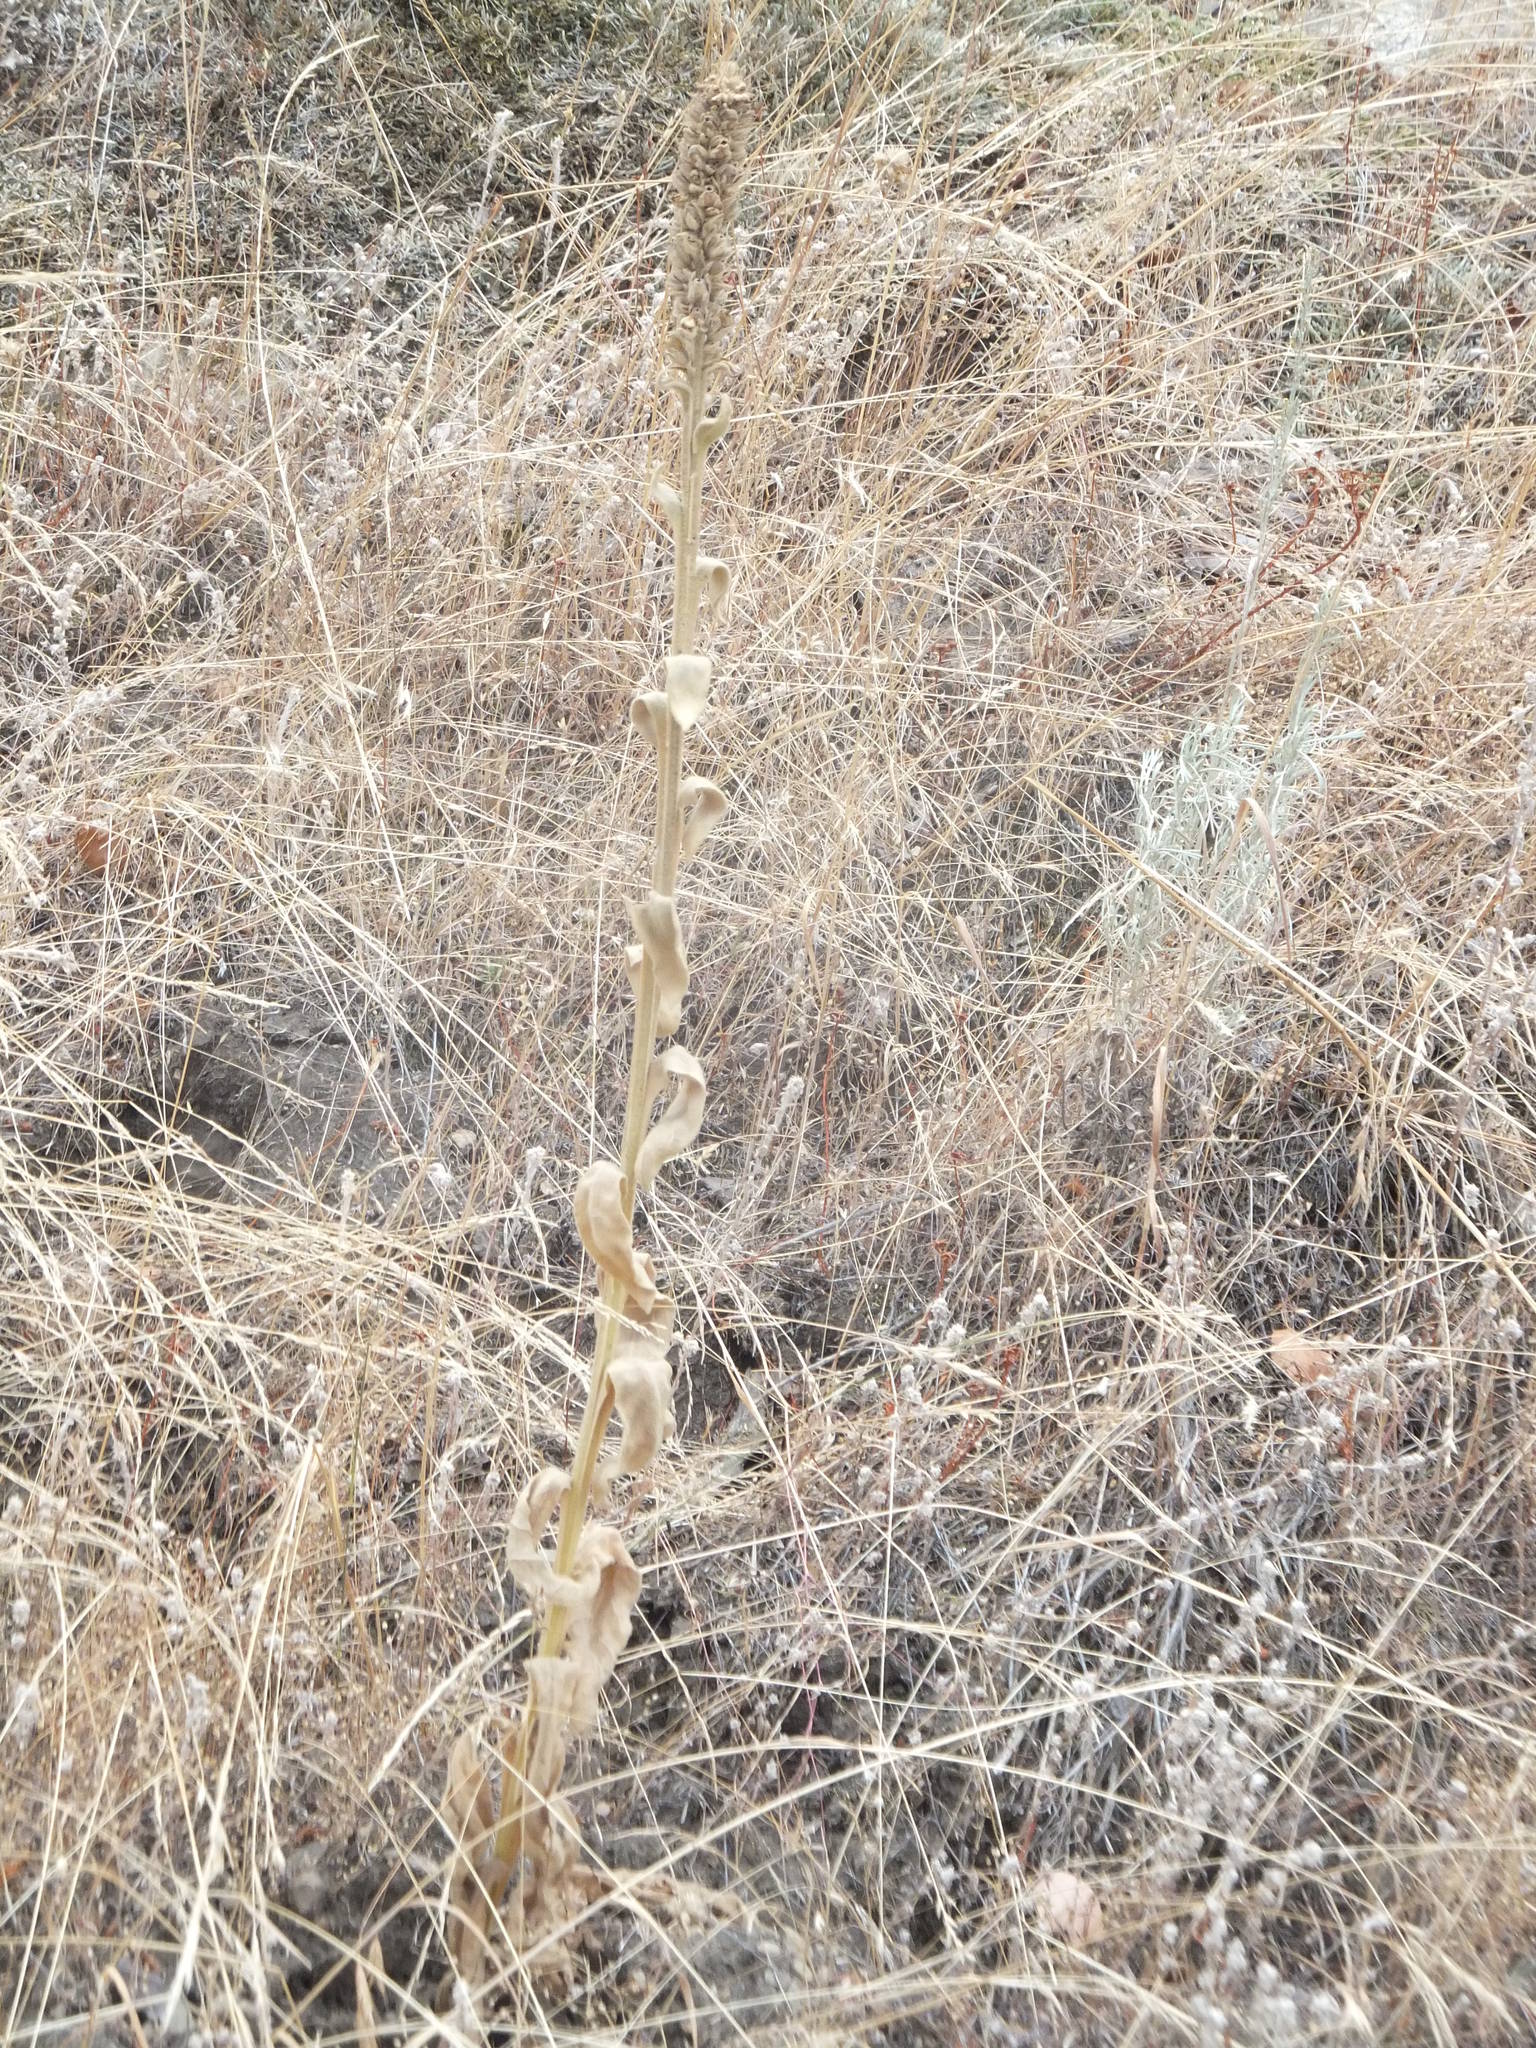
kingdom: Plantae
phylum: Tracheophyta
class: Magnoliopsida
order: Lamiales
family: Scrophulariaceae
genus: Verbascum
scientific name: Verbascum thapsus
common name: Common mullein
